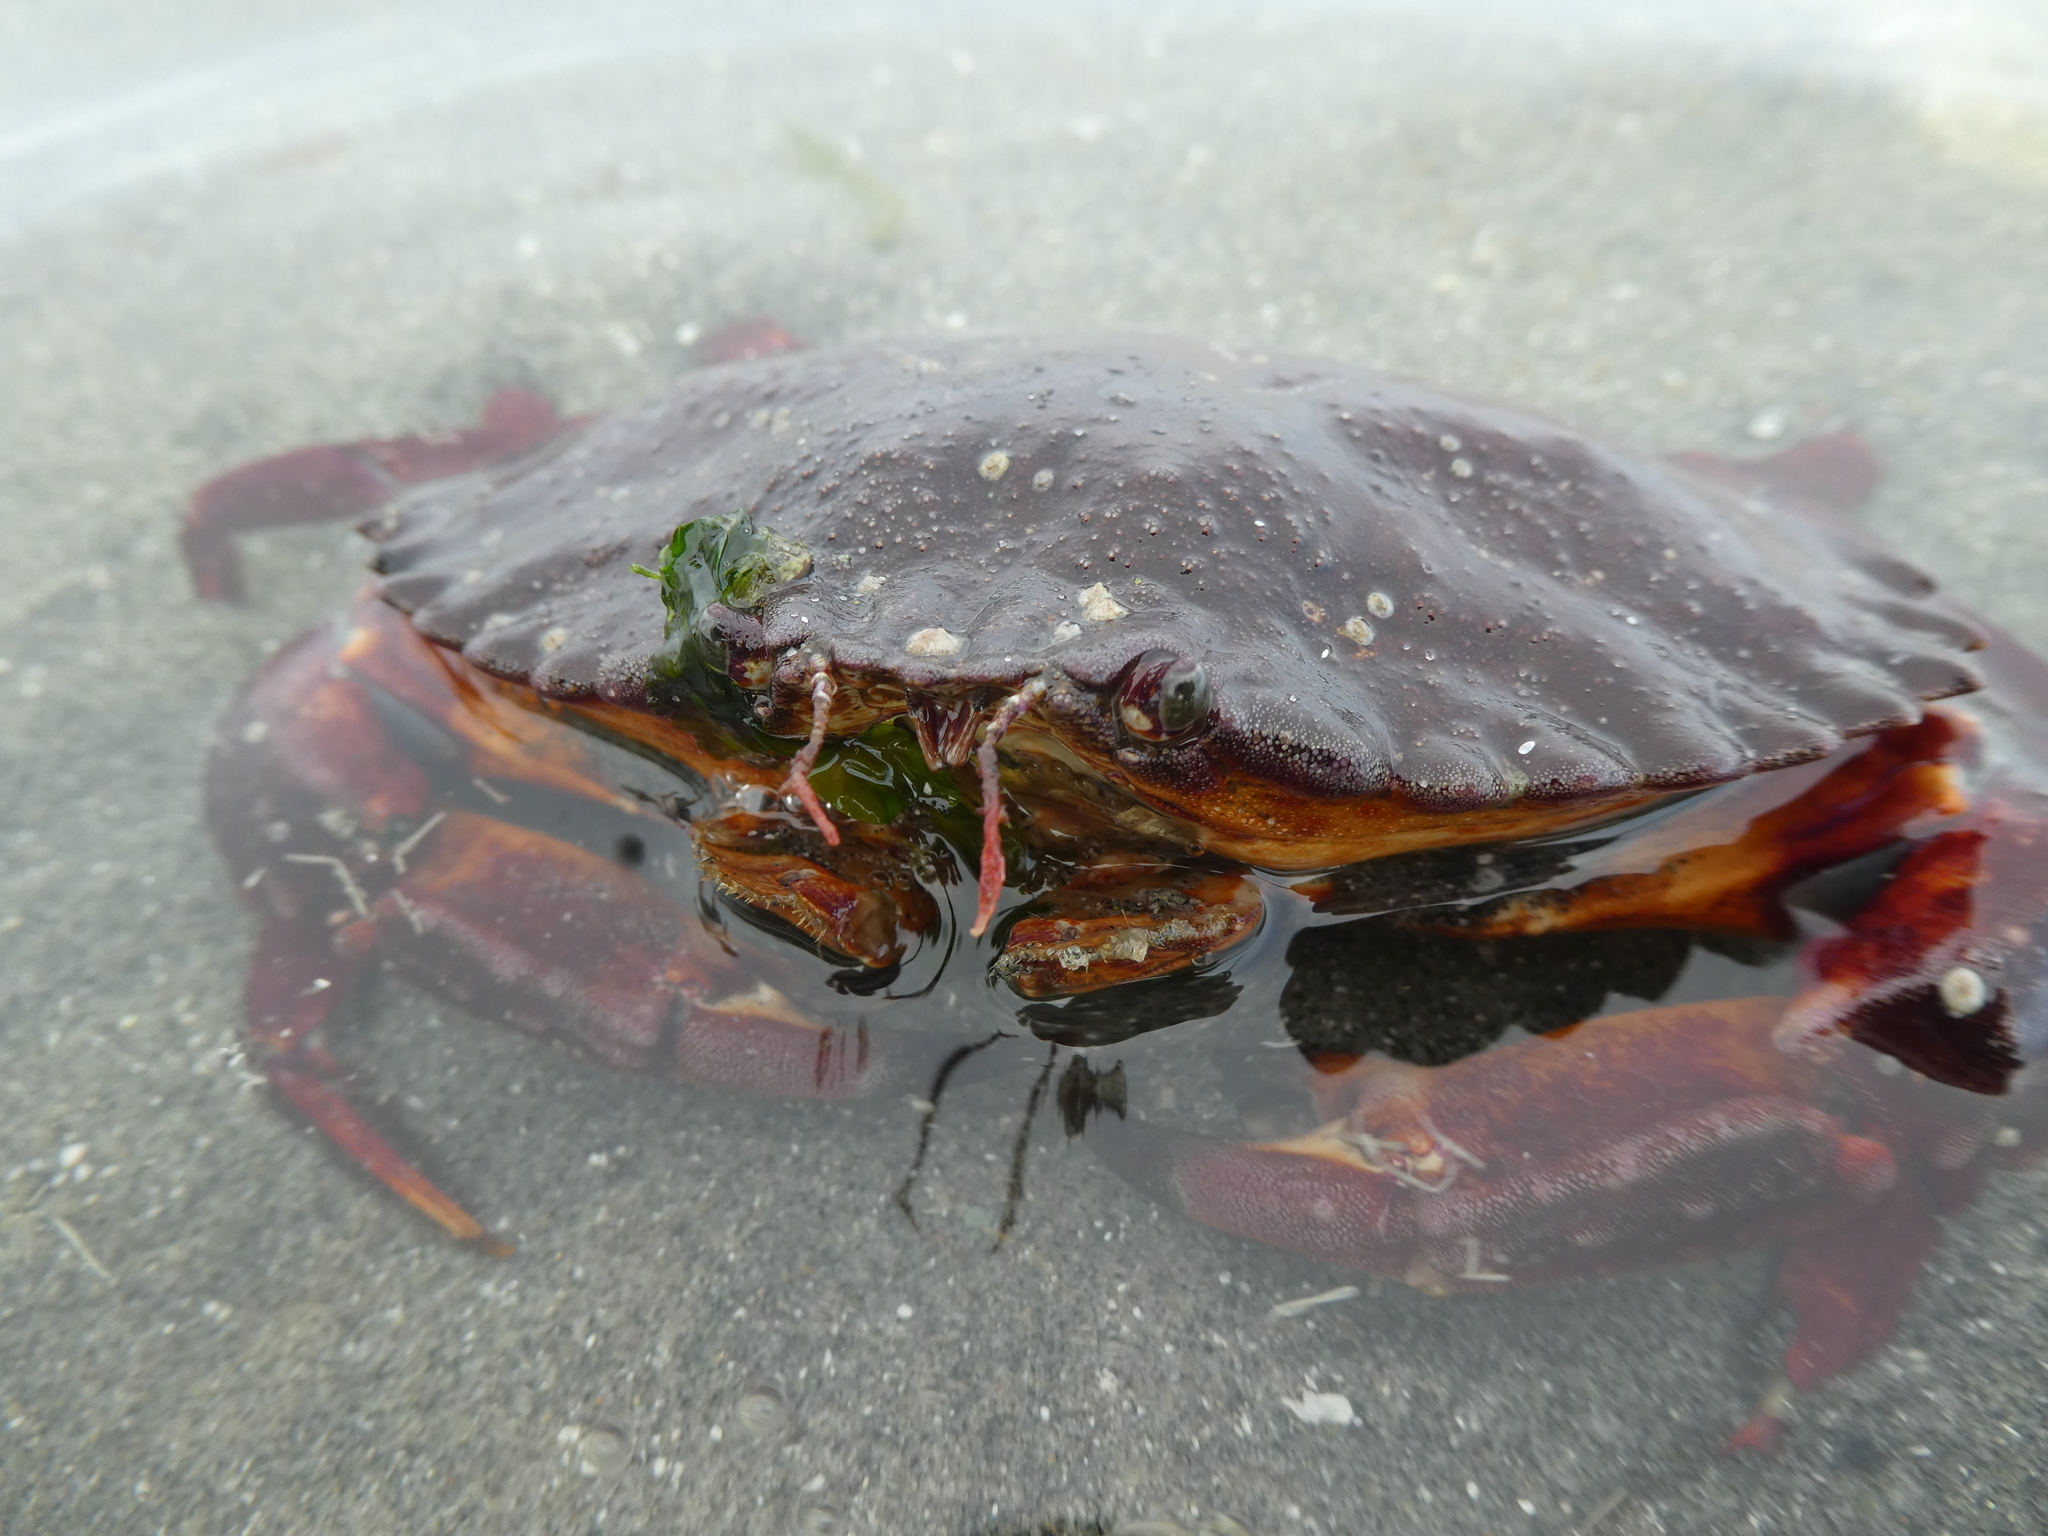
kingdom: Animalia
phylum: Arthropoda
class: Malacostraca
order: Decapoda
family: Cancridae
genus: Cancer
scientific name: Cancer productus
